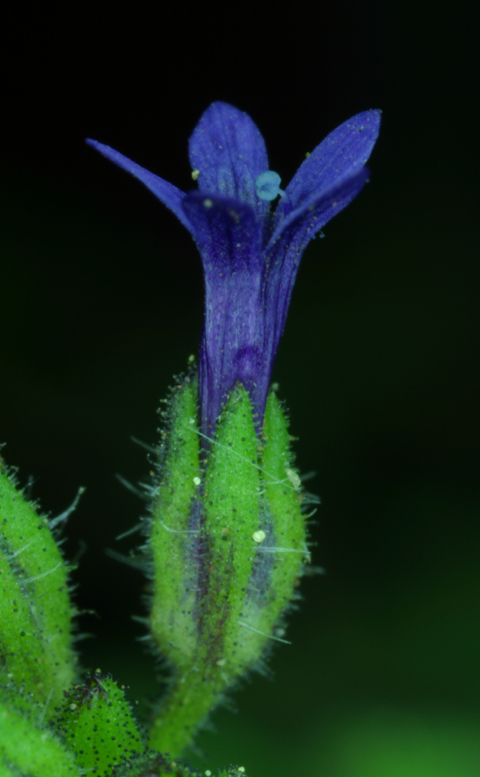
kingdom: Plantae
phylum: Tracheophyta
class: Magnoliopsida
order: Ericales
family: Polemoniaceae
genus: Allophyllum
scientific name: Allophyllum gilioides
